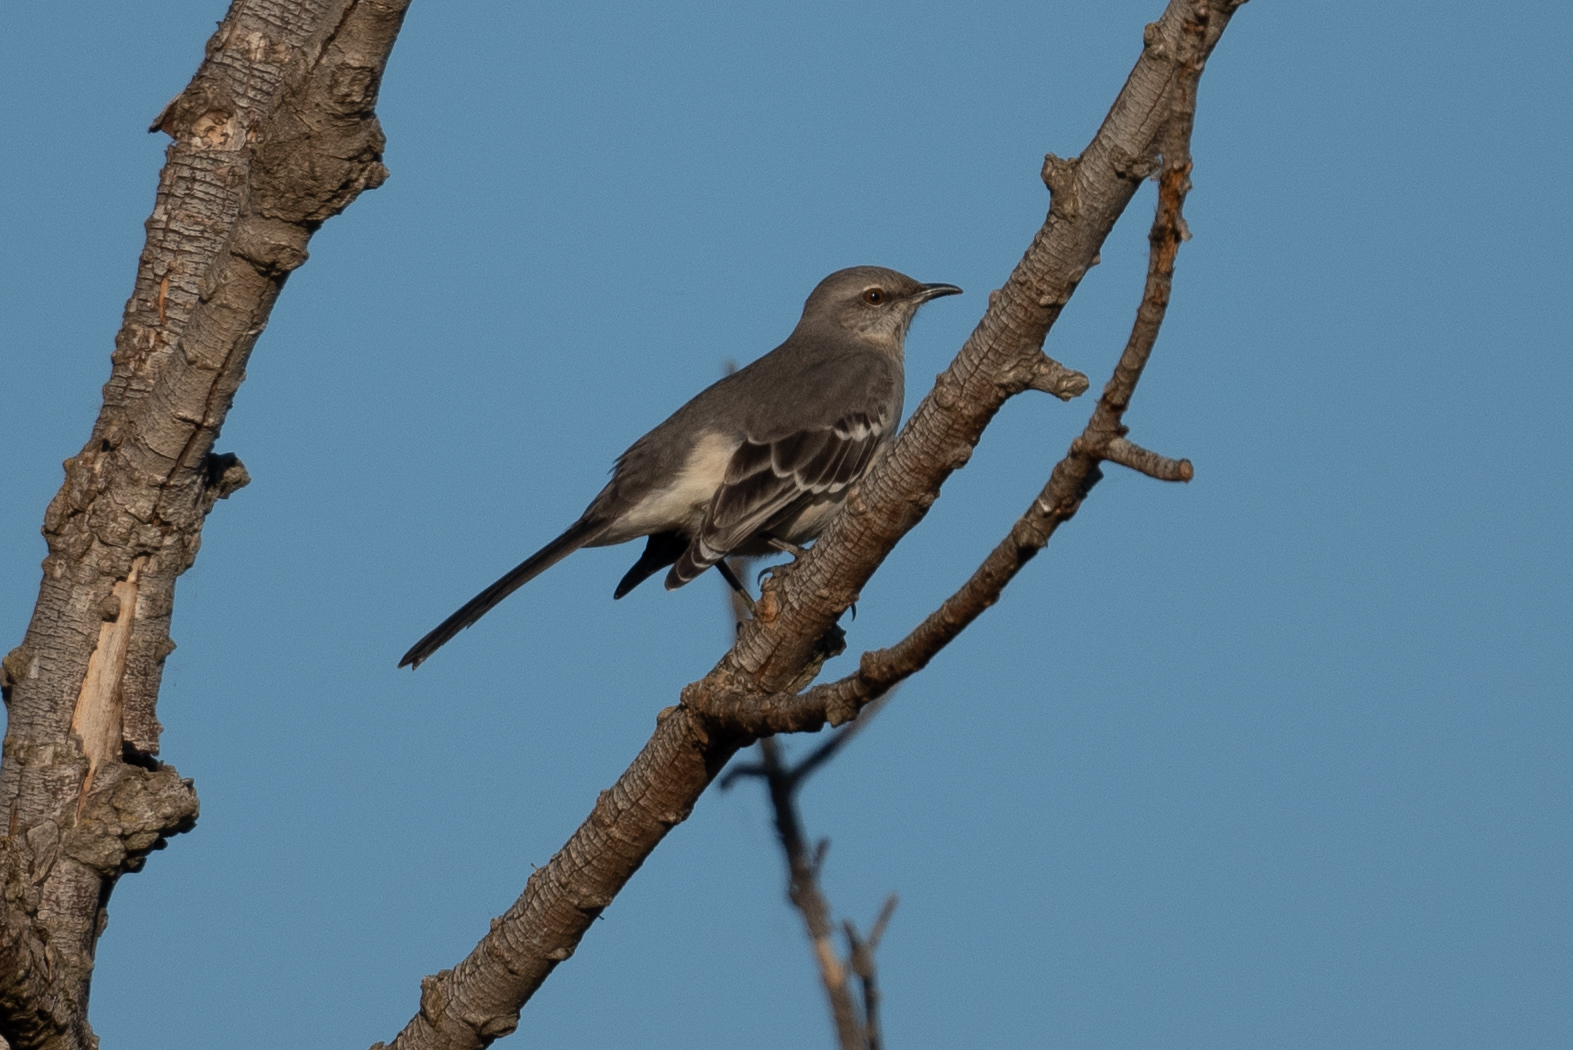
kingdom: Animalia
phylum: Chordata
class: Aves
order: Passeriformes
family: Mimidae
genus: Mimus
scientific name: Mimus polyglottos
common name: Northern mockingbird
